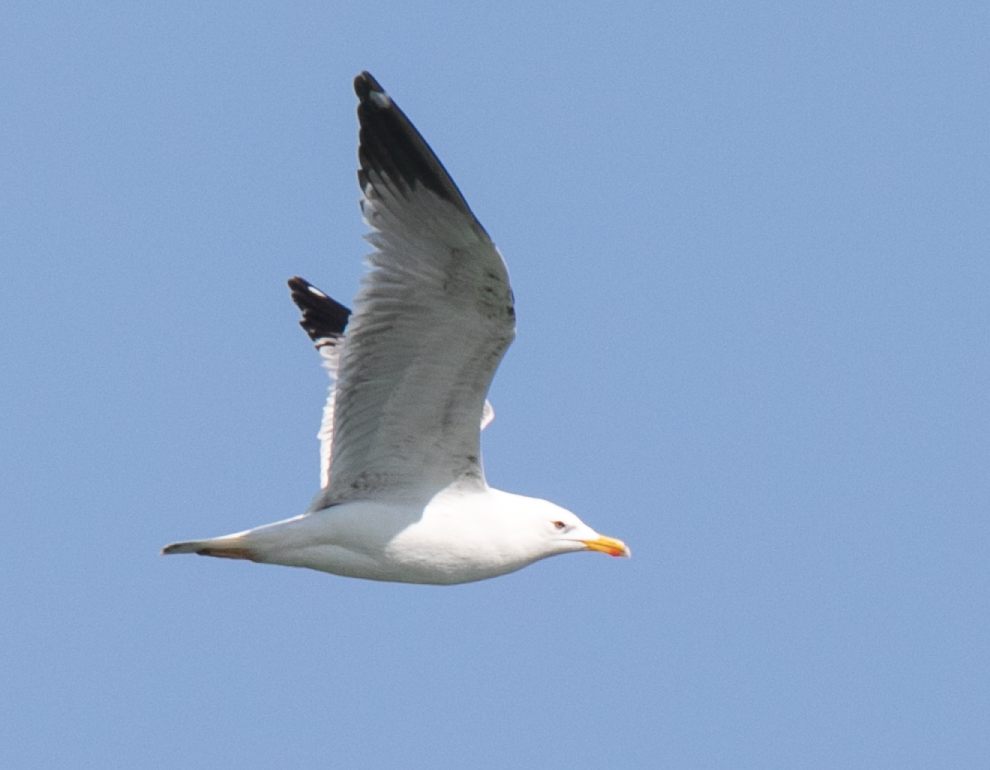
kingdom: Animalia
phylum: Chordata
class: Aves
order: Charadriiformes
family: Laridae
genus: Larus
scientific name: Larus michahellis
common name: Yellow-legged gull
